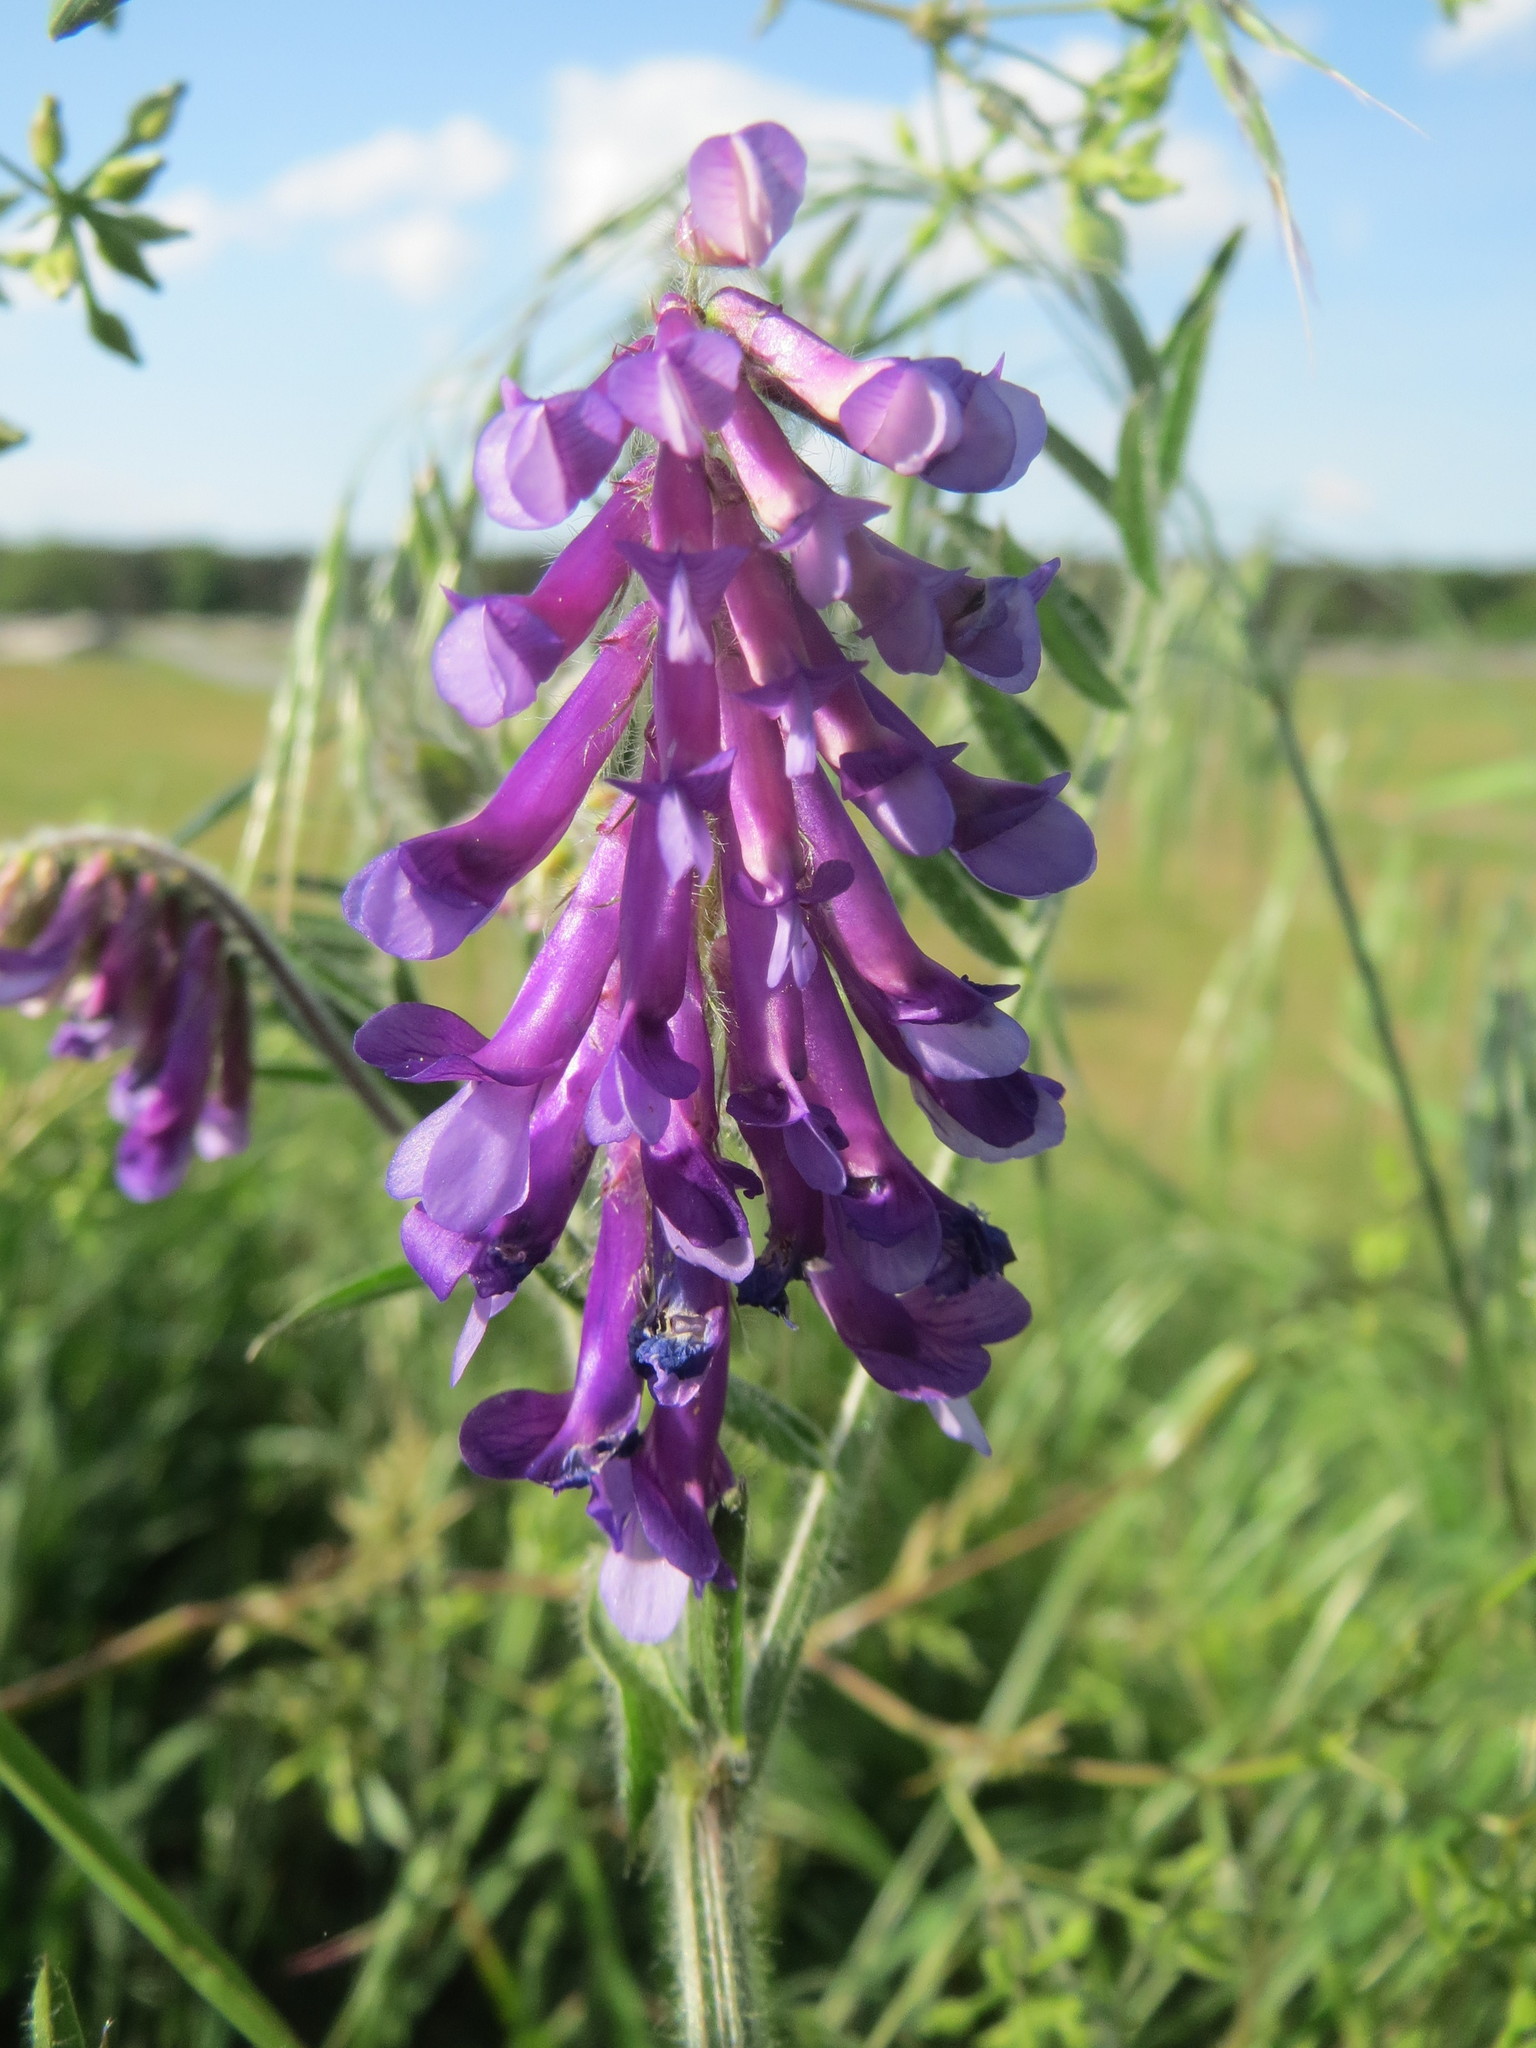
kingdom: Plantae
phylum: Tracheophyta
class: Magnoliopsida
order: Fabales
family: Fabaceae
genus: Vicia
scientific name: Vicia villosa
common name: Fodder vetch
